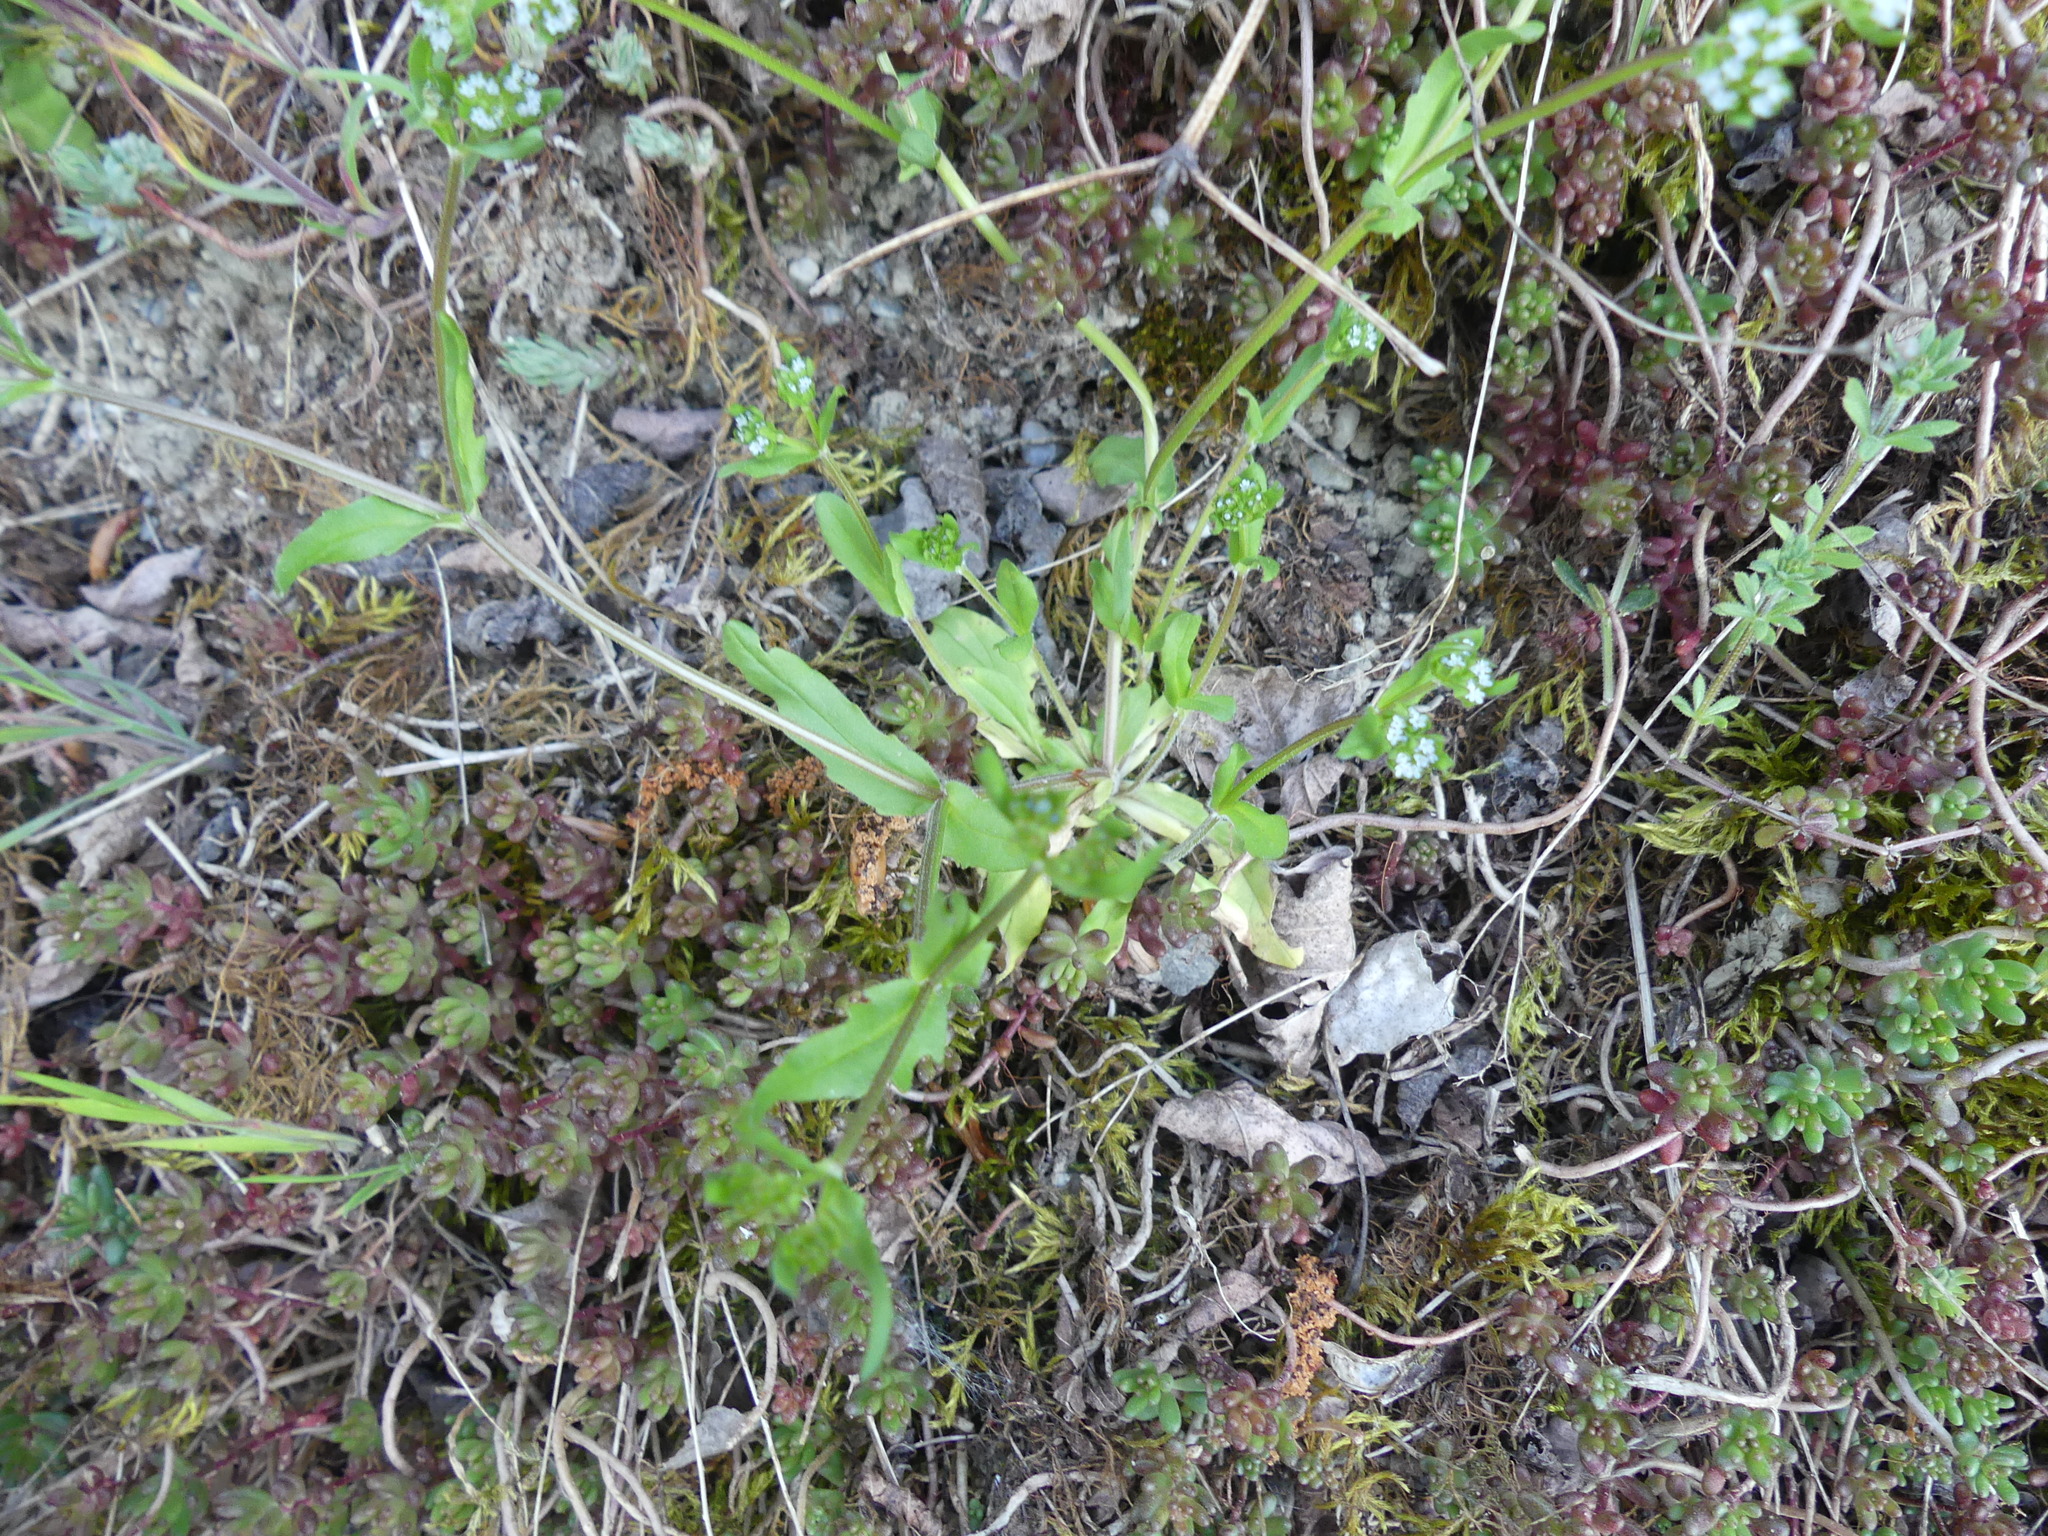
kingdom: Plantae
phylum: Tracheophyta
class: Magnoliopsida
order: Dipsacales
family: Caprifoliaceae
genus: Valerianella
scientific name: Valerianella locusta
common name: Common cornsalad
